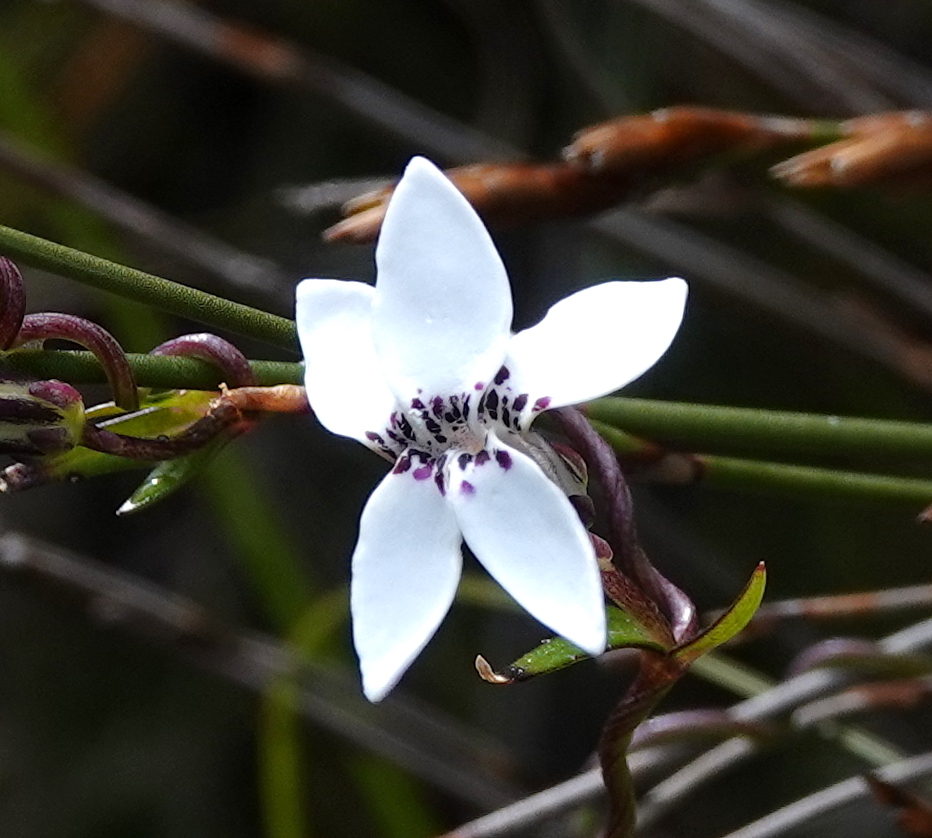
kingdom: Plantae
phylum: Tracheophyta
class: Magnoliopsida
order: Asterales
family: Campanulaceae
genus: Cyphia
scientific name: Cyphia volubilis
